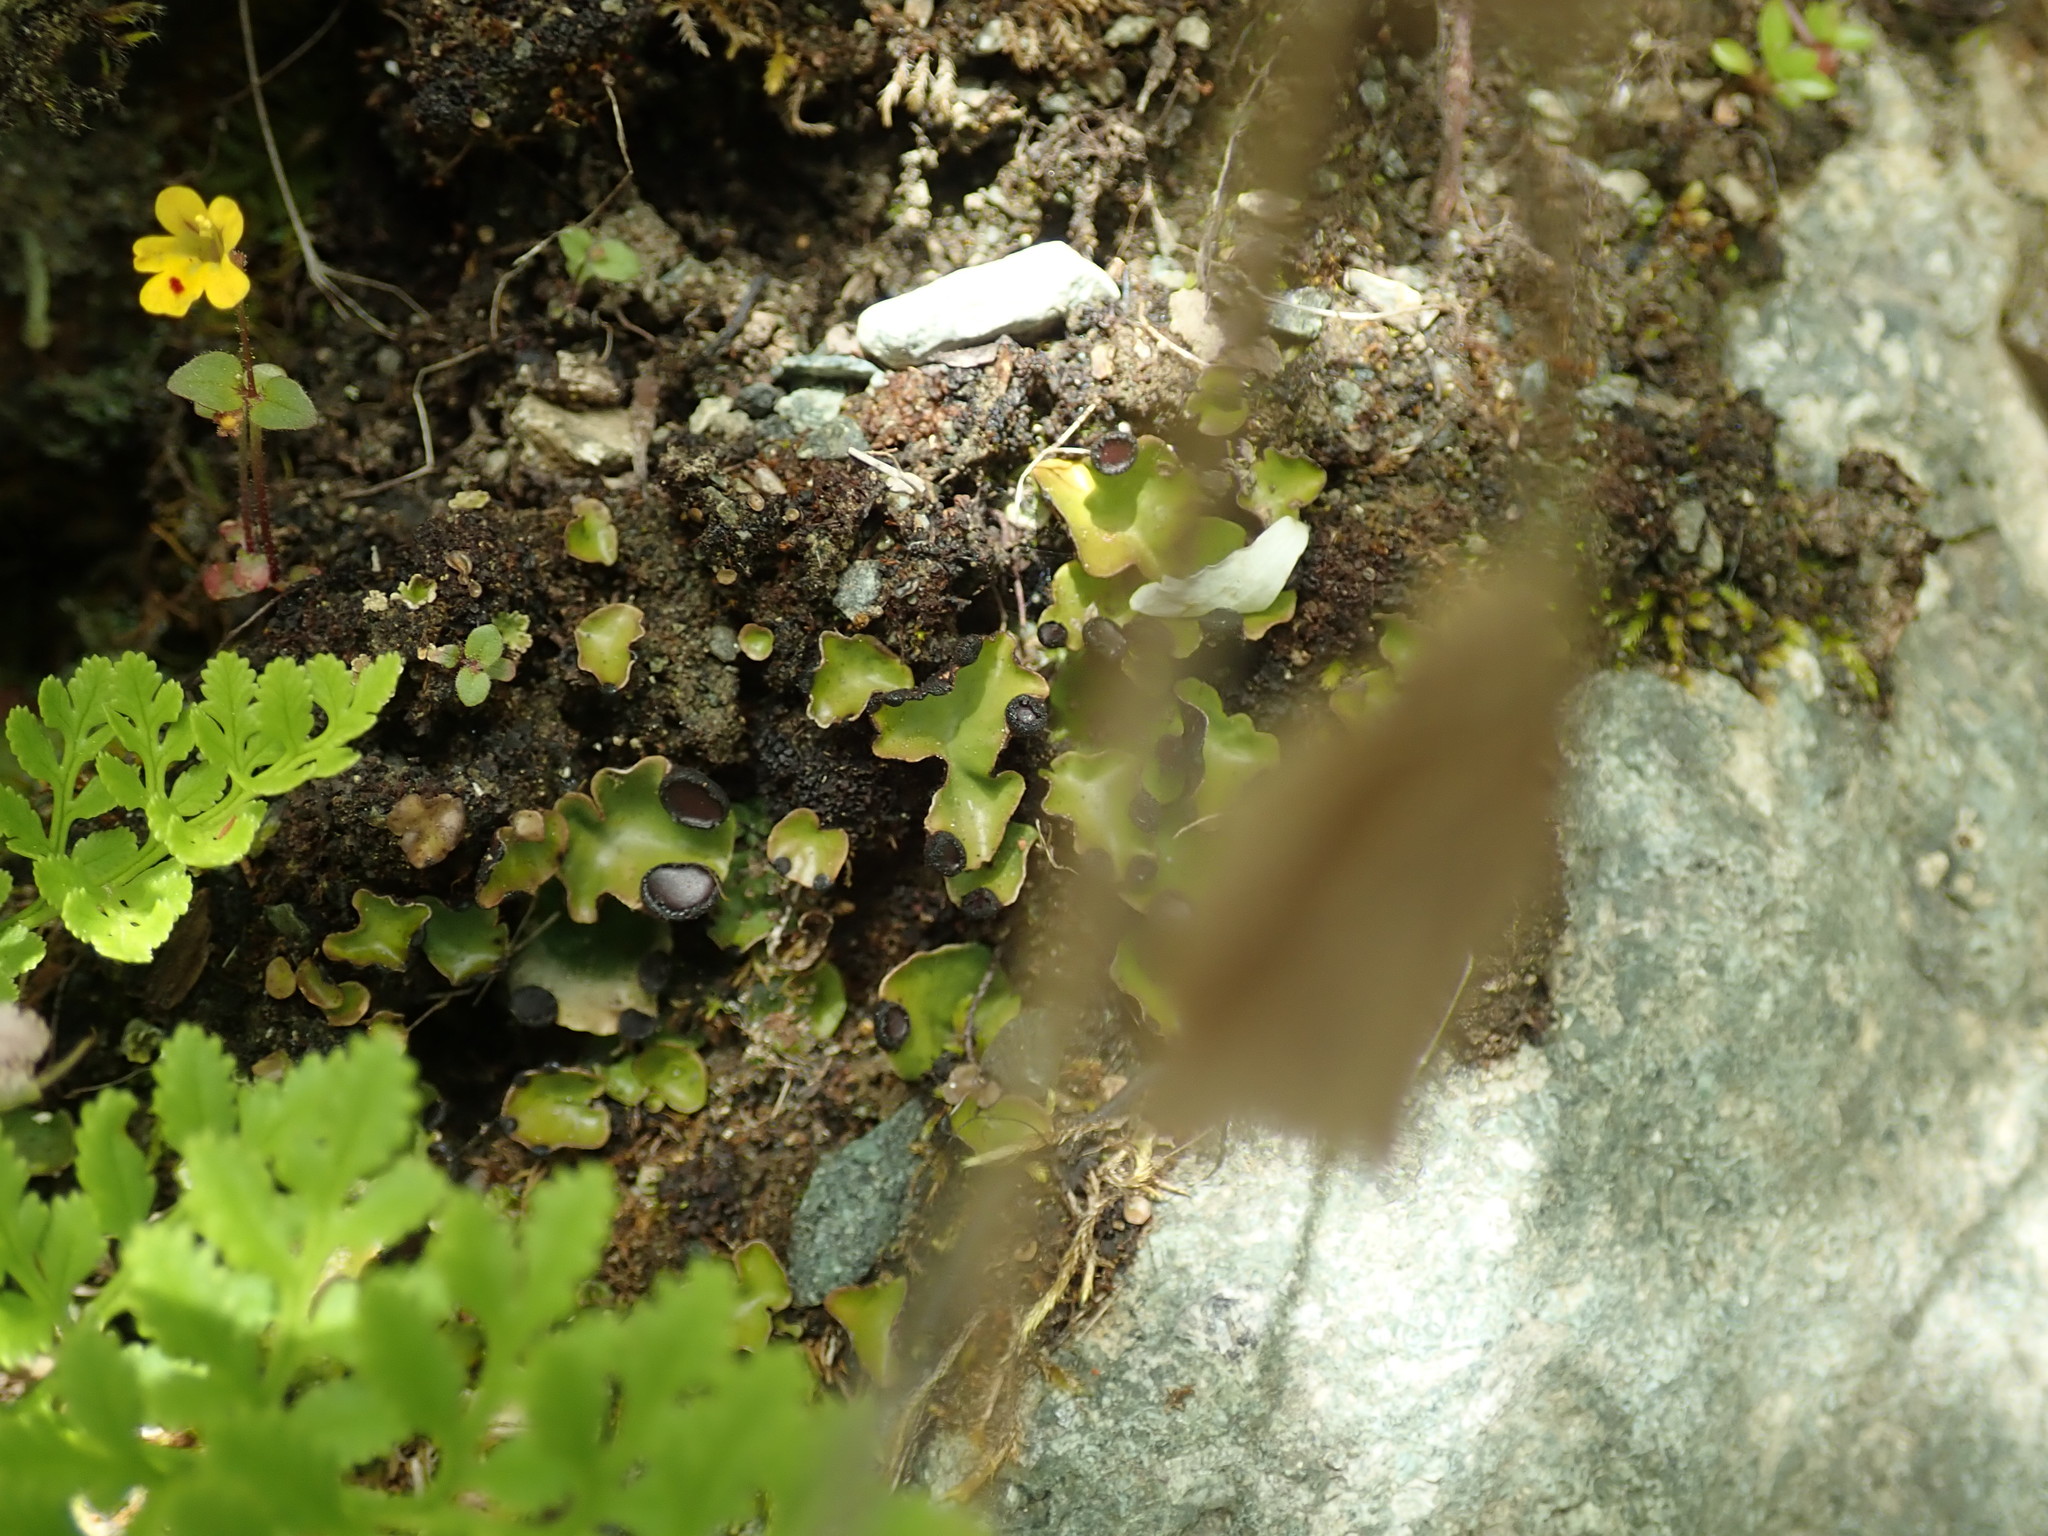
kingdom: Fungi
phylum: Ascomycota
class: Lecanoromycetes
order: Peltigerales
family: Peltigeraceae
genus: Peltigera
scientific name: Peltigera venosa
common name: Pixie gowns lichen
